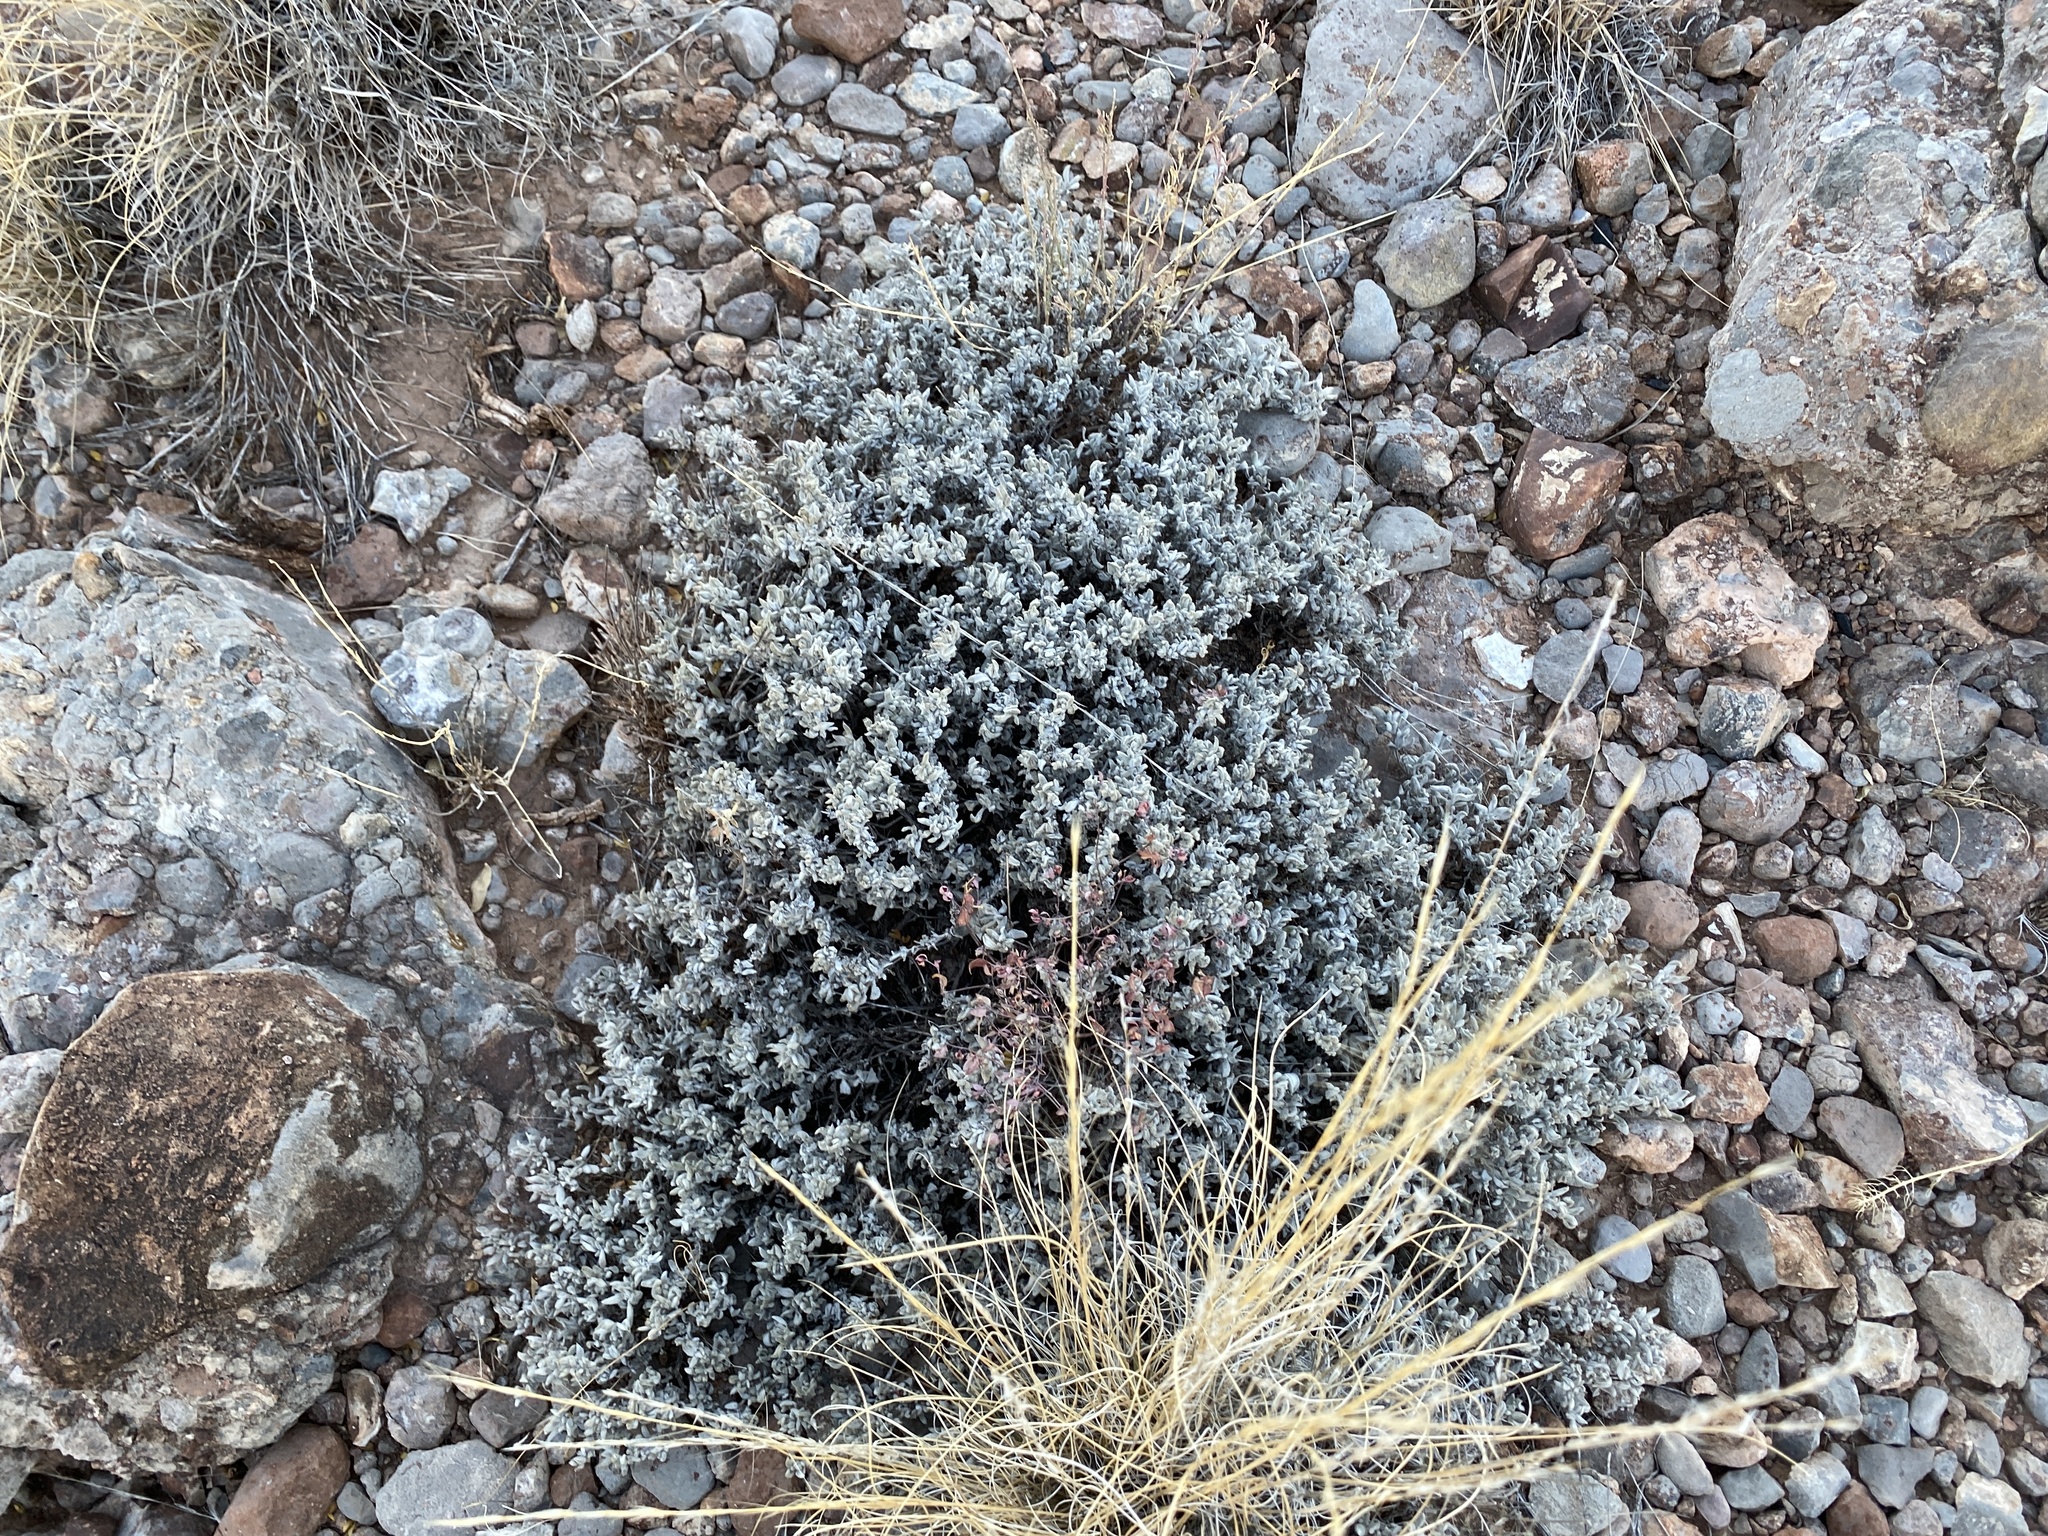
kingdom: Plantae
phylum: Tracheophyta
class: Magnoliopsida
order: Boraginales
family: Ehretiaceae
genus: Tiquilia
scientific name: Tiquilia canescens
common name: Hairy tiquilia
